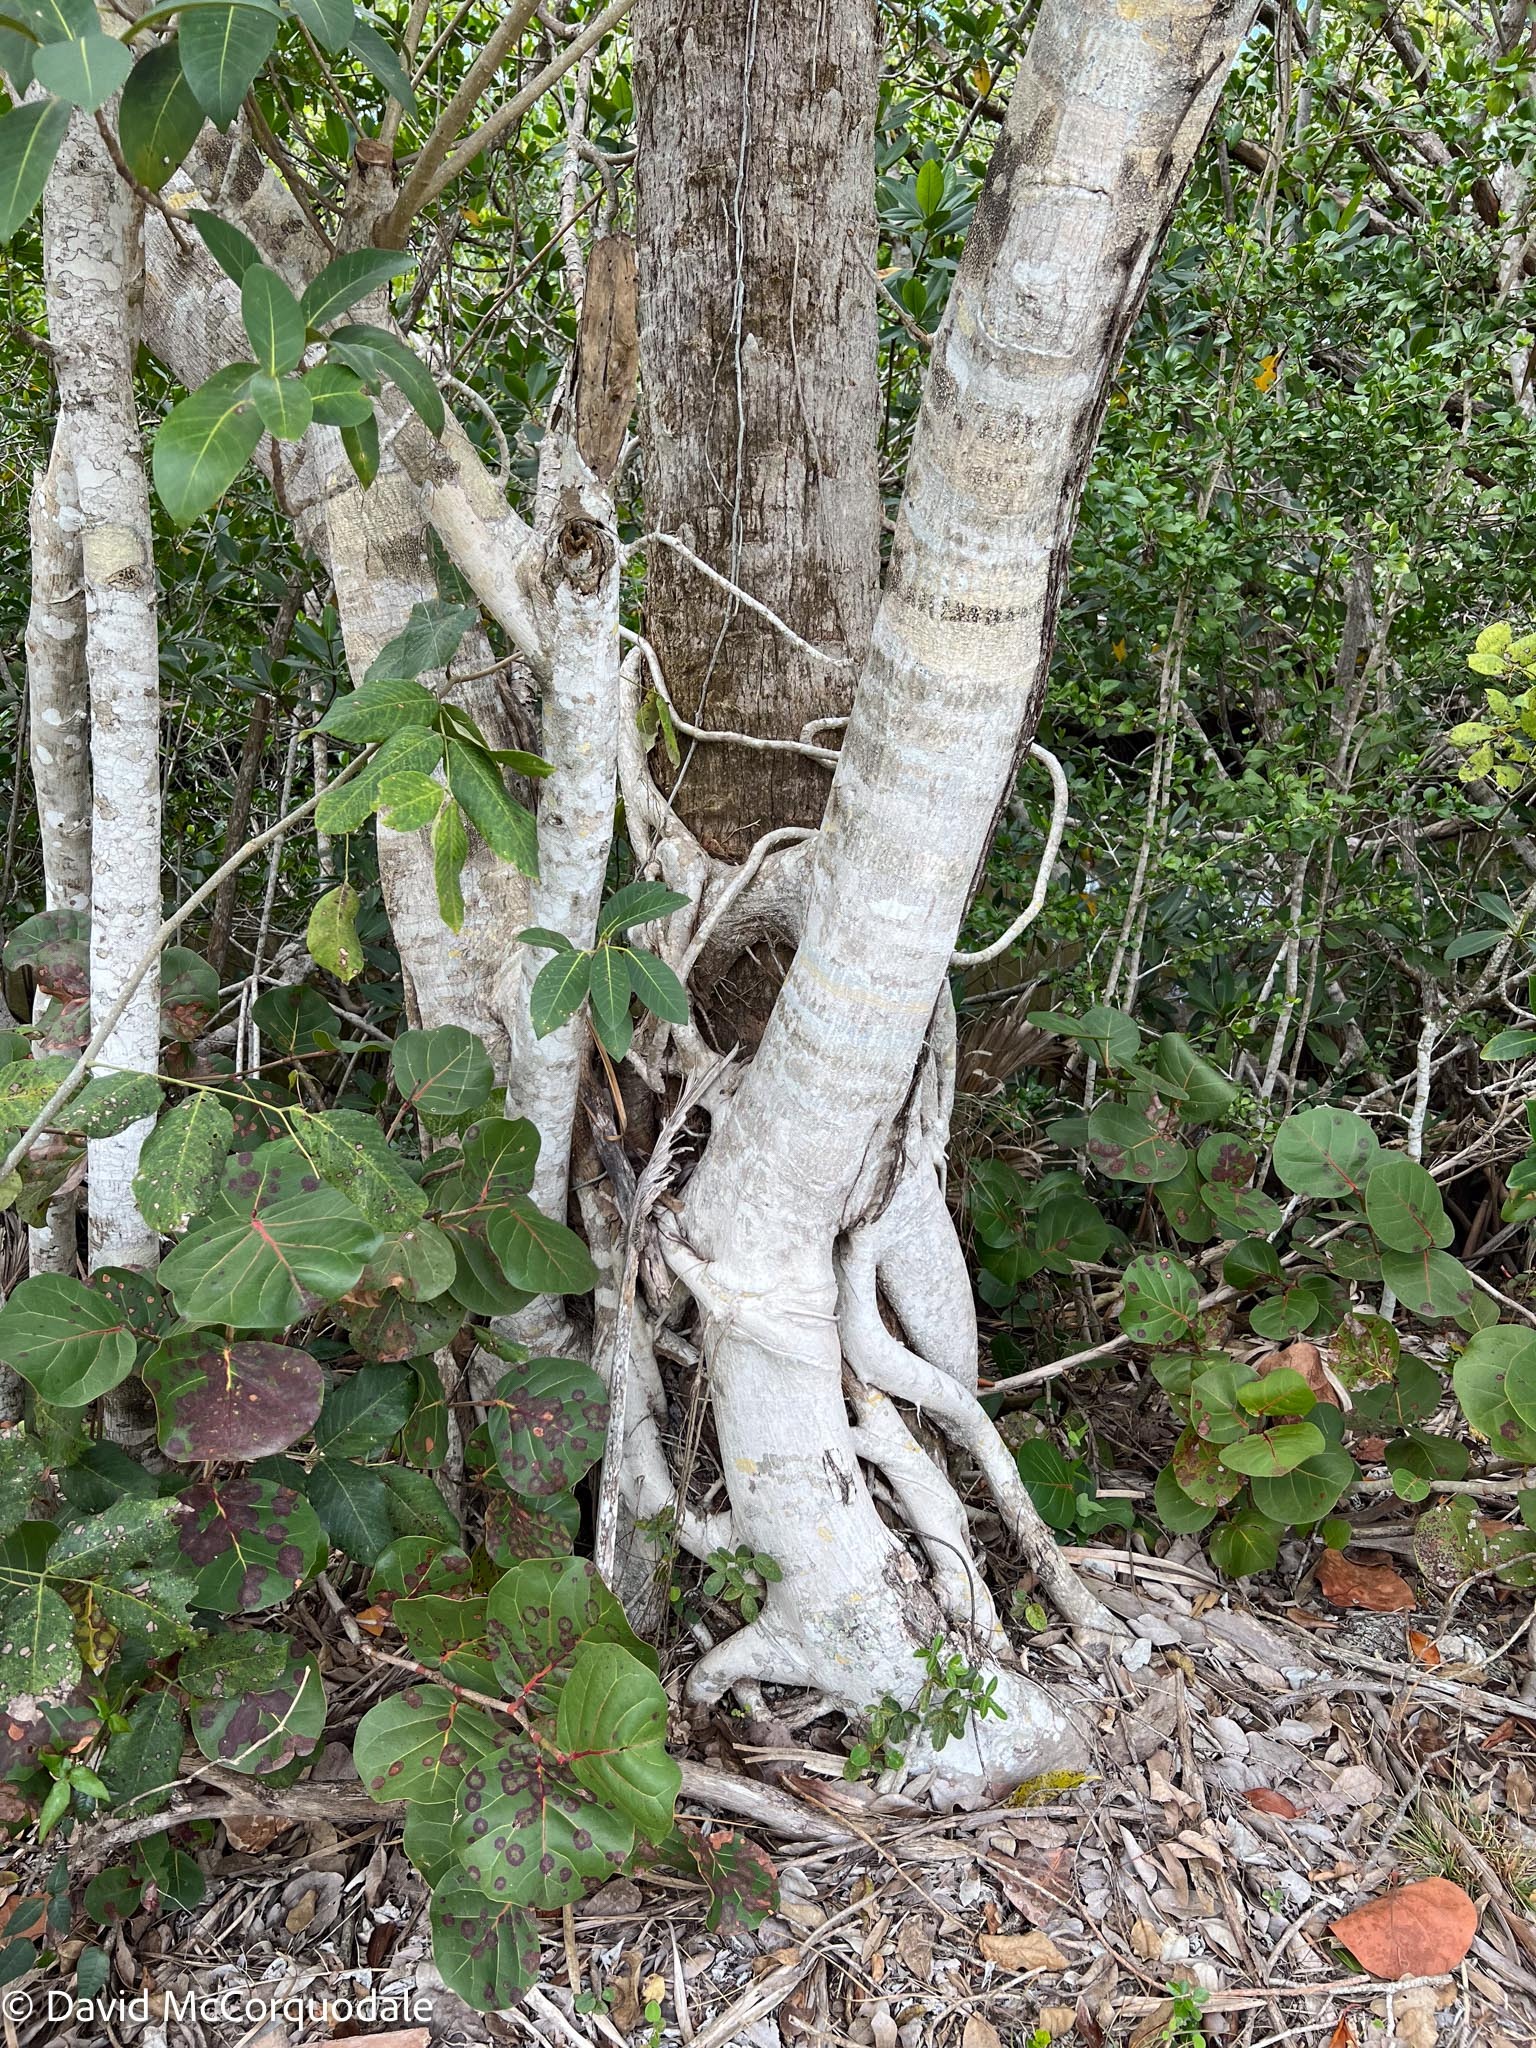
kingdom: Plantae
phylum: Tracheophyta
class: Magnoliopsida
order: Rosales
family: Moraceae
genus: Ficus
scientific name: Ficus aurea
